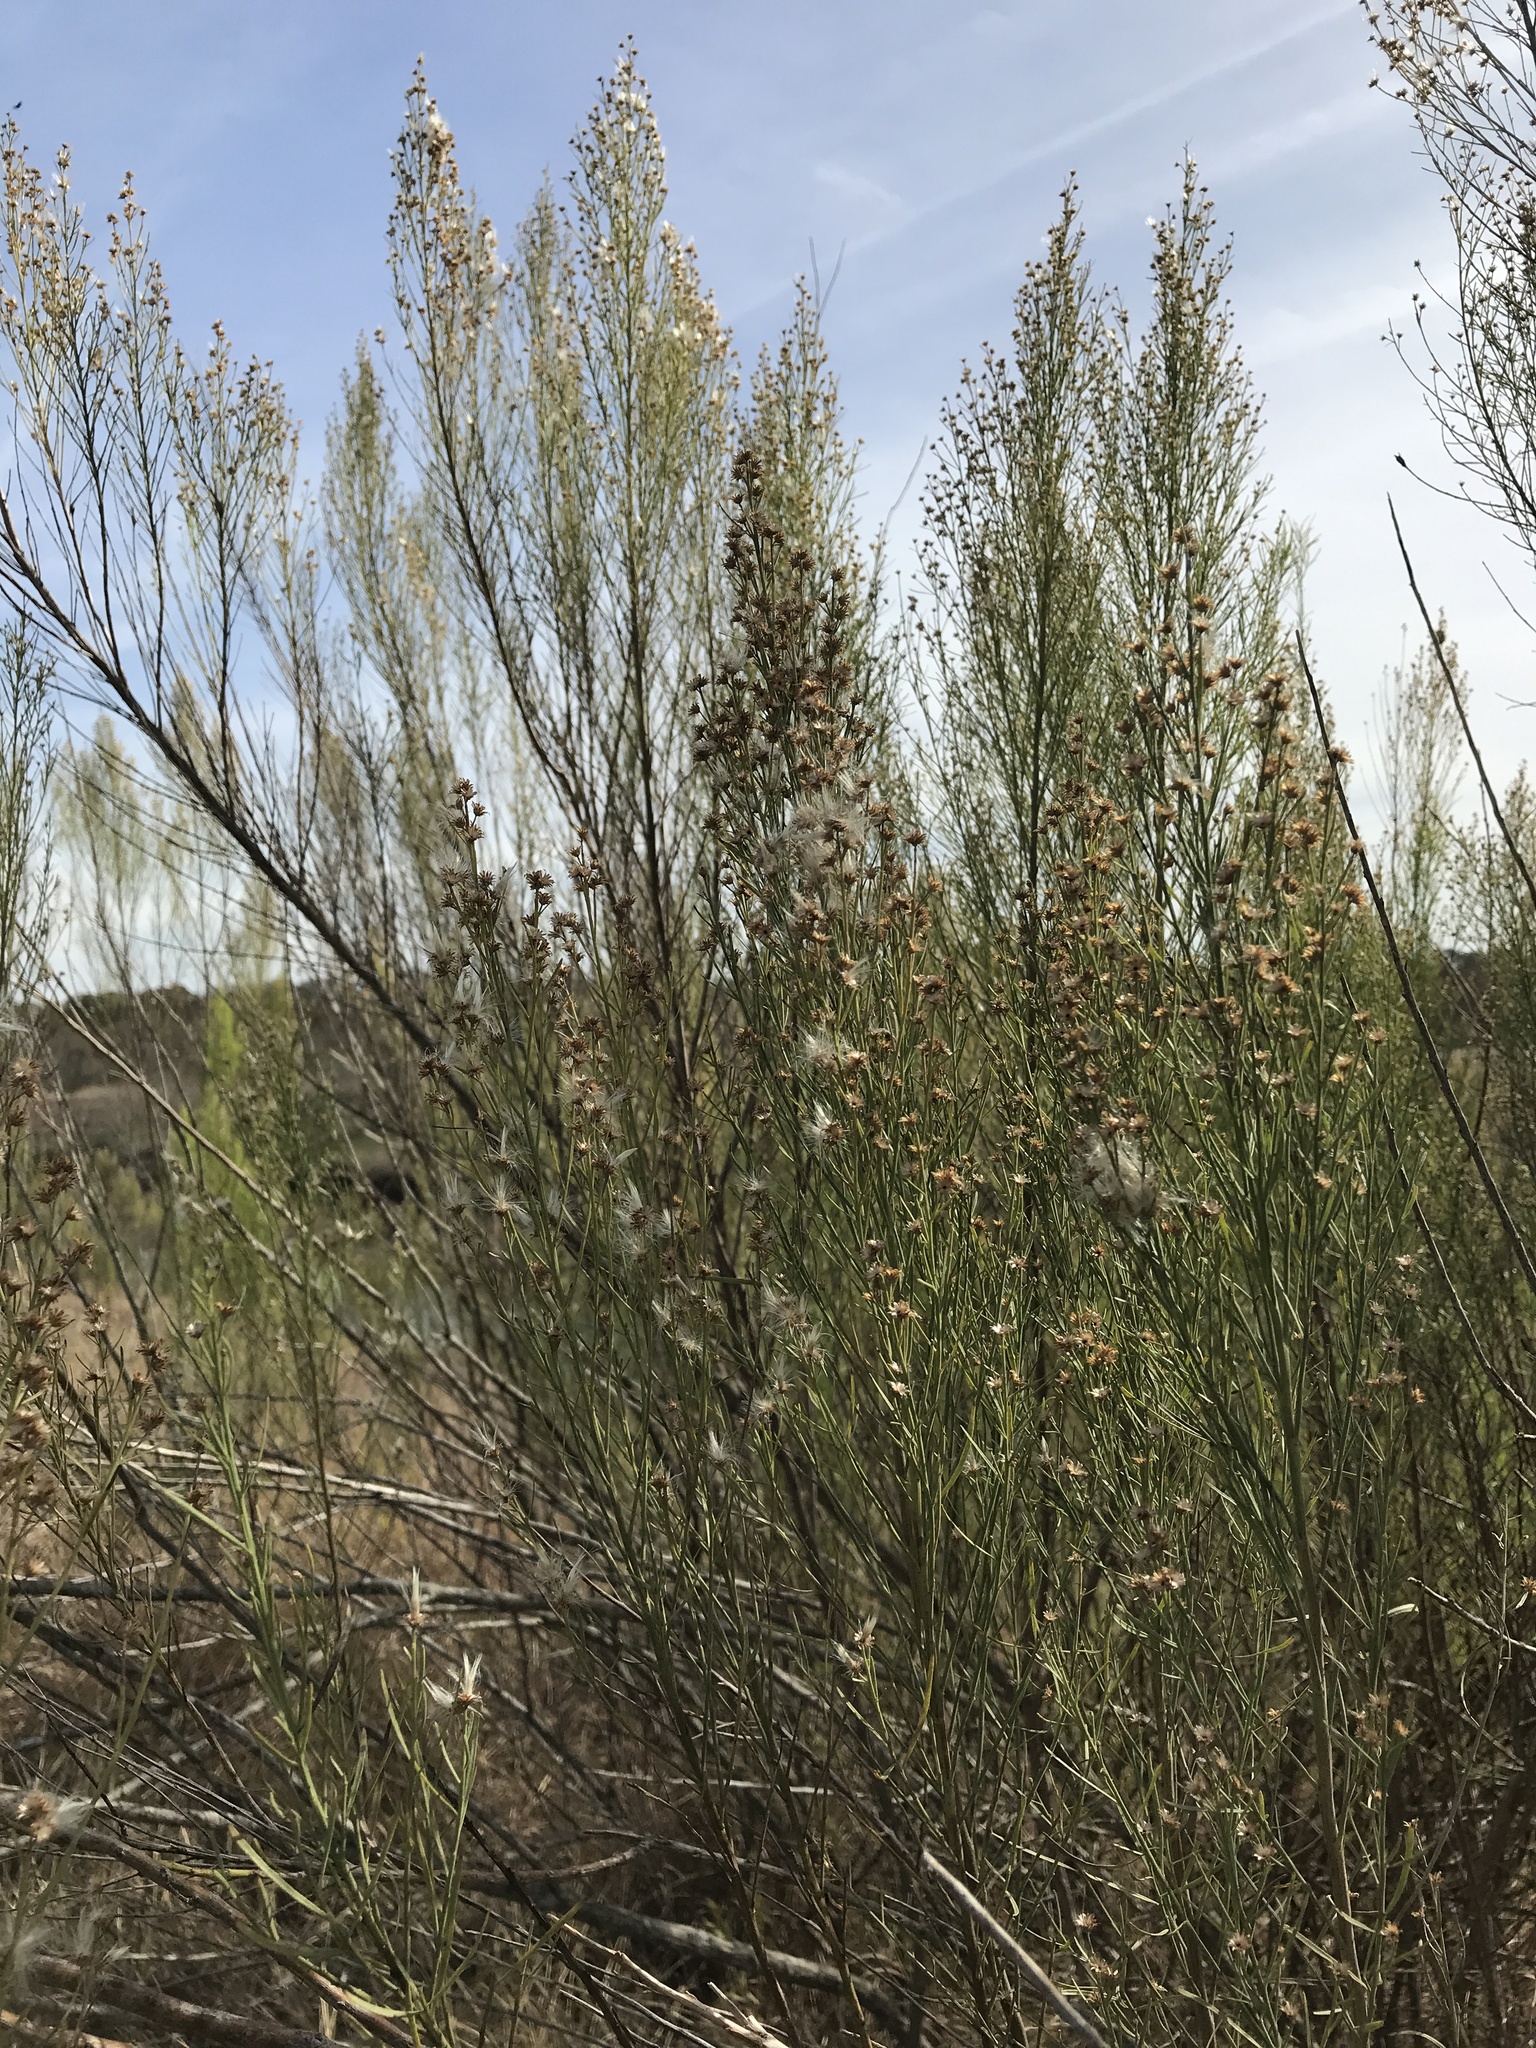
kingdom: Plantae
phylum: Tracheophyta
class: Magnoliopsida
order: Asterales
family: Asteraceae
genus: Baccharis
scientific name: Baccharis neglecta
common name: Roosevelt-weed
